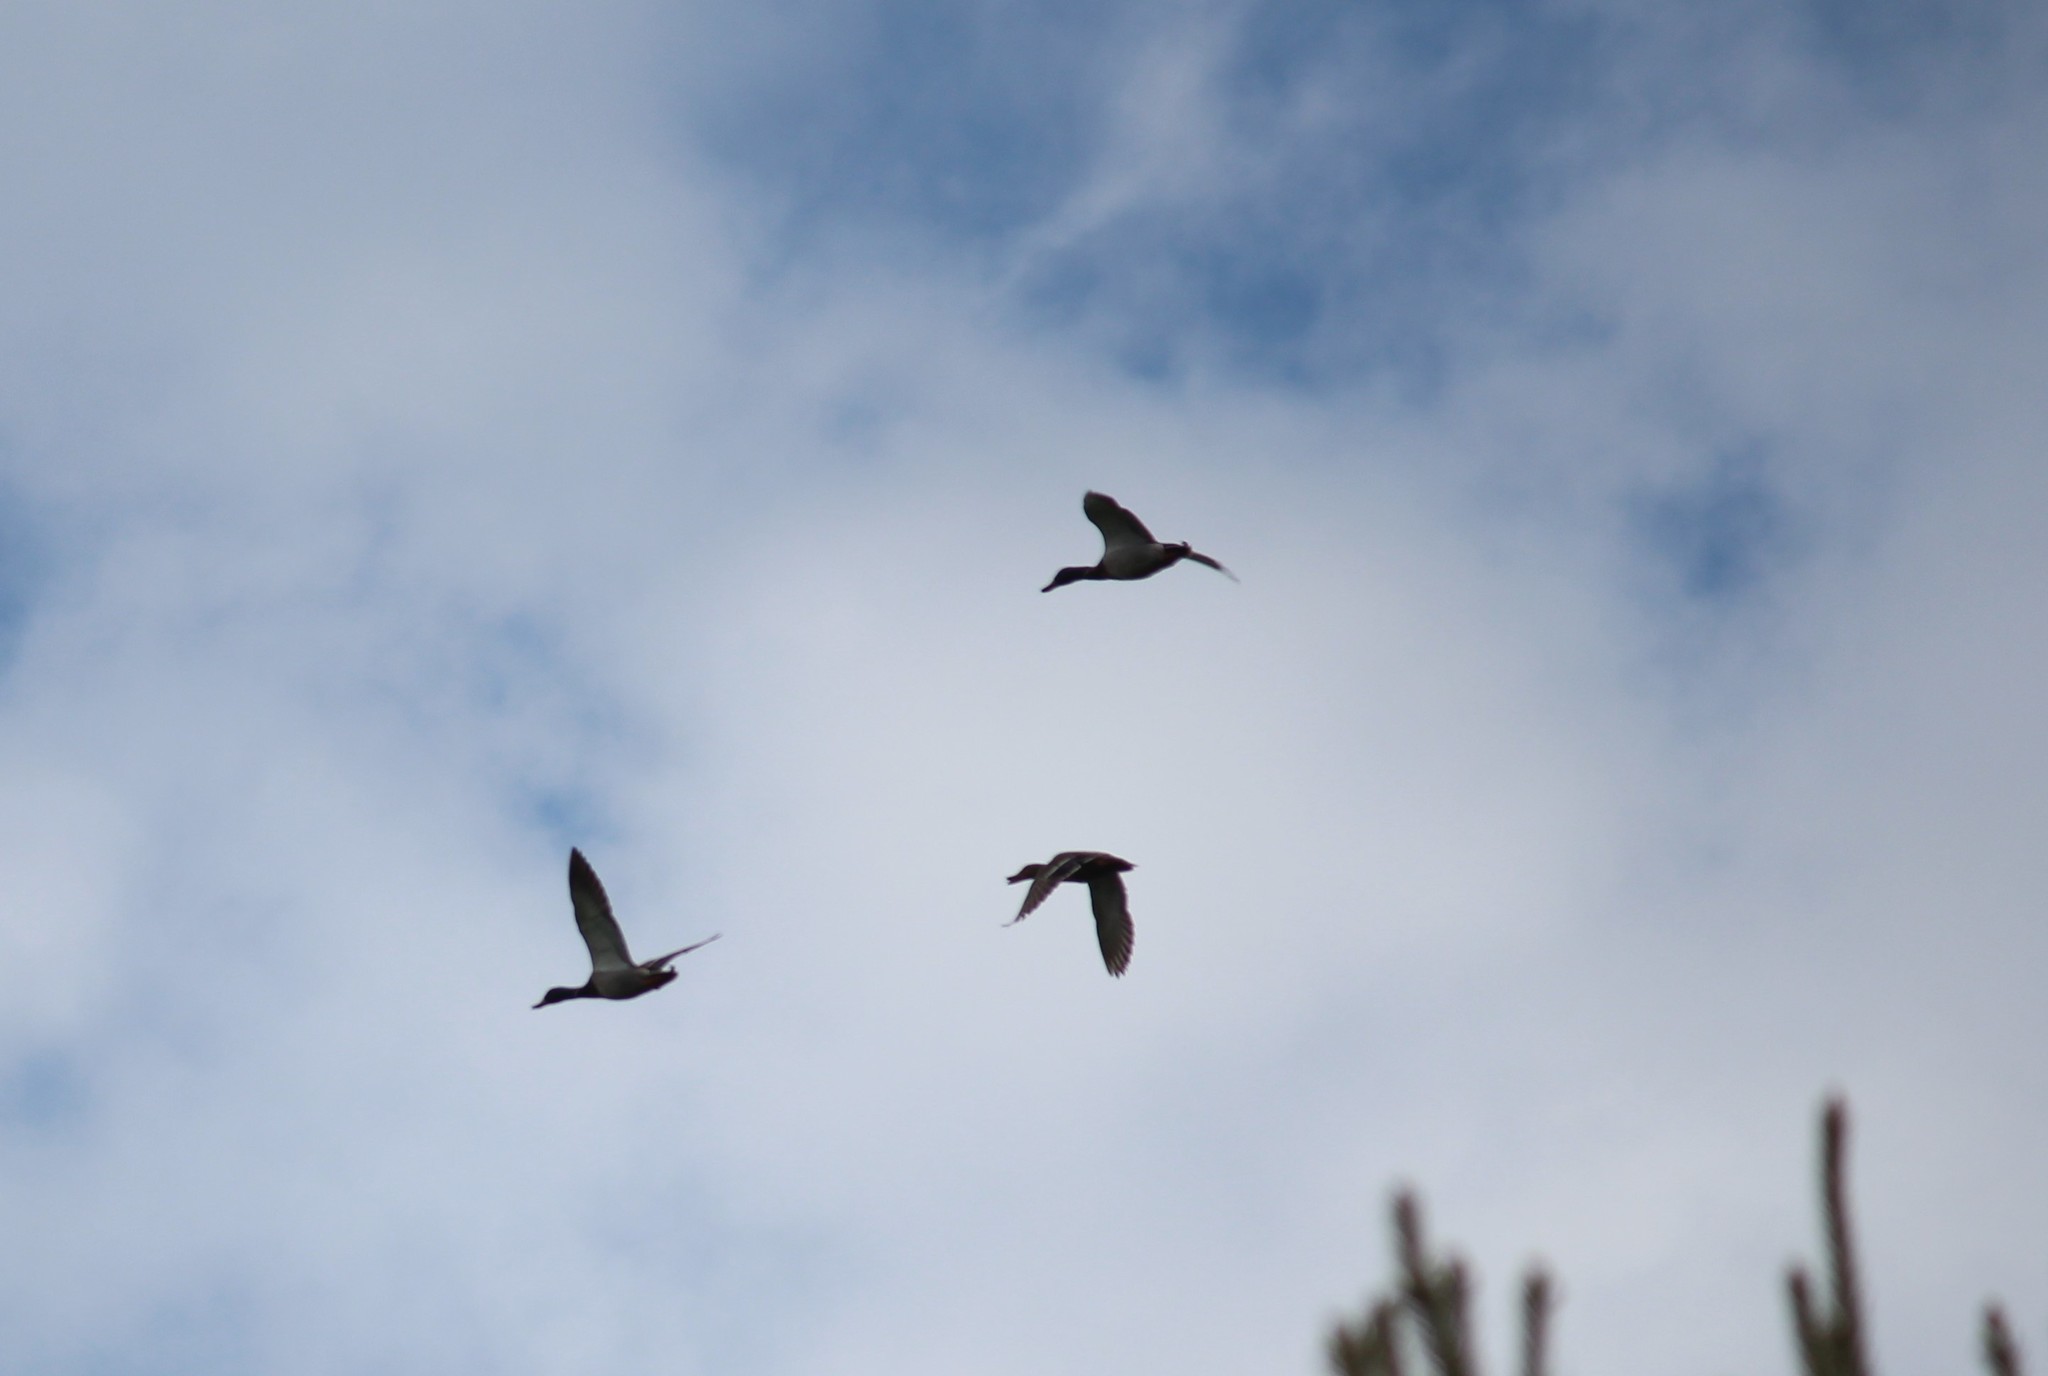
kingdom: Animalia
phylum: Chordata
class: Aves
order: Anseriformes
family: Anatidae
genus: Anas
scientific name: Anas platyrhynchos
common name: Mallard
